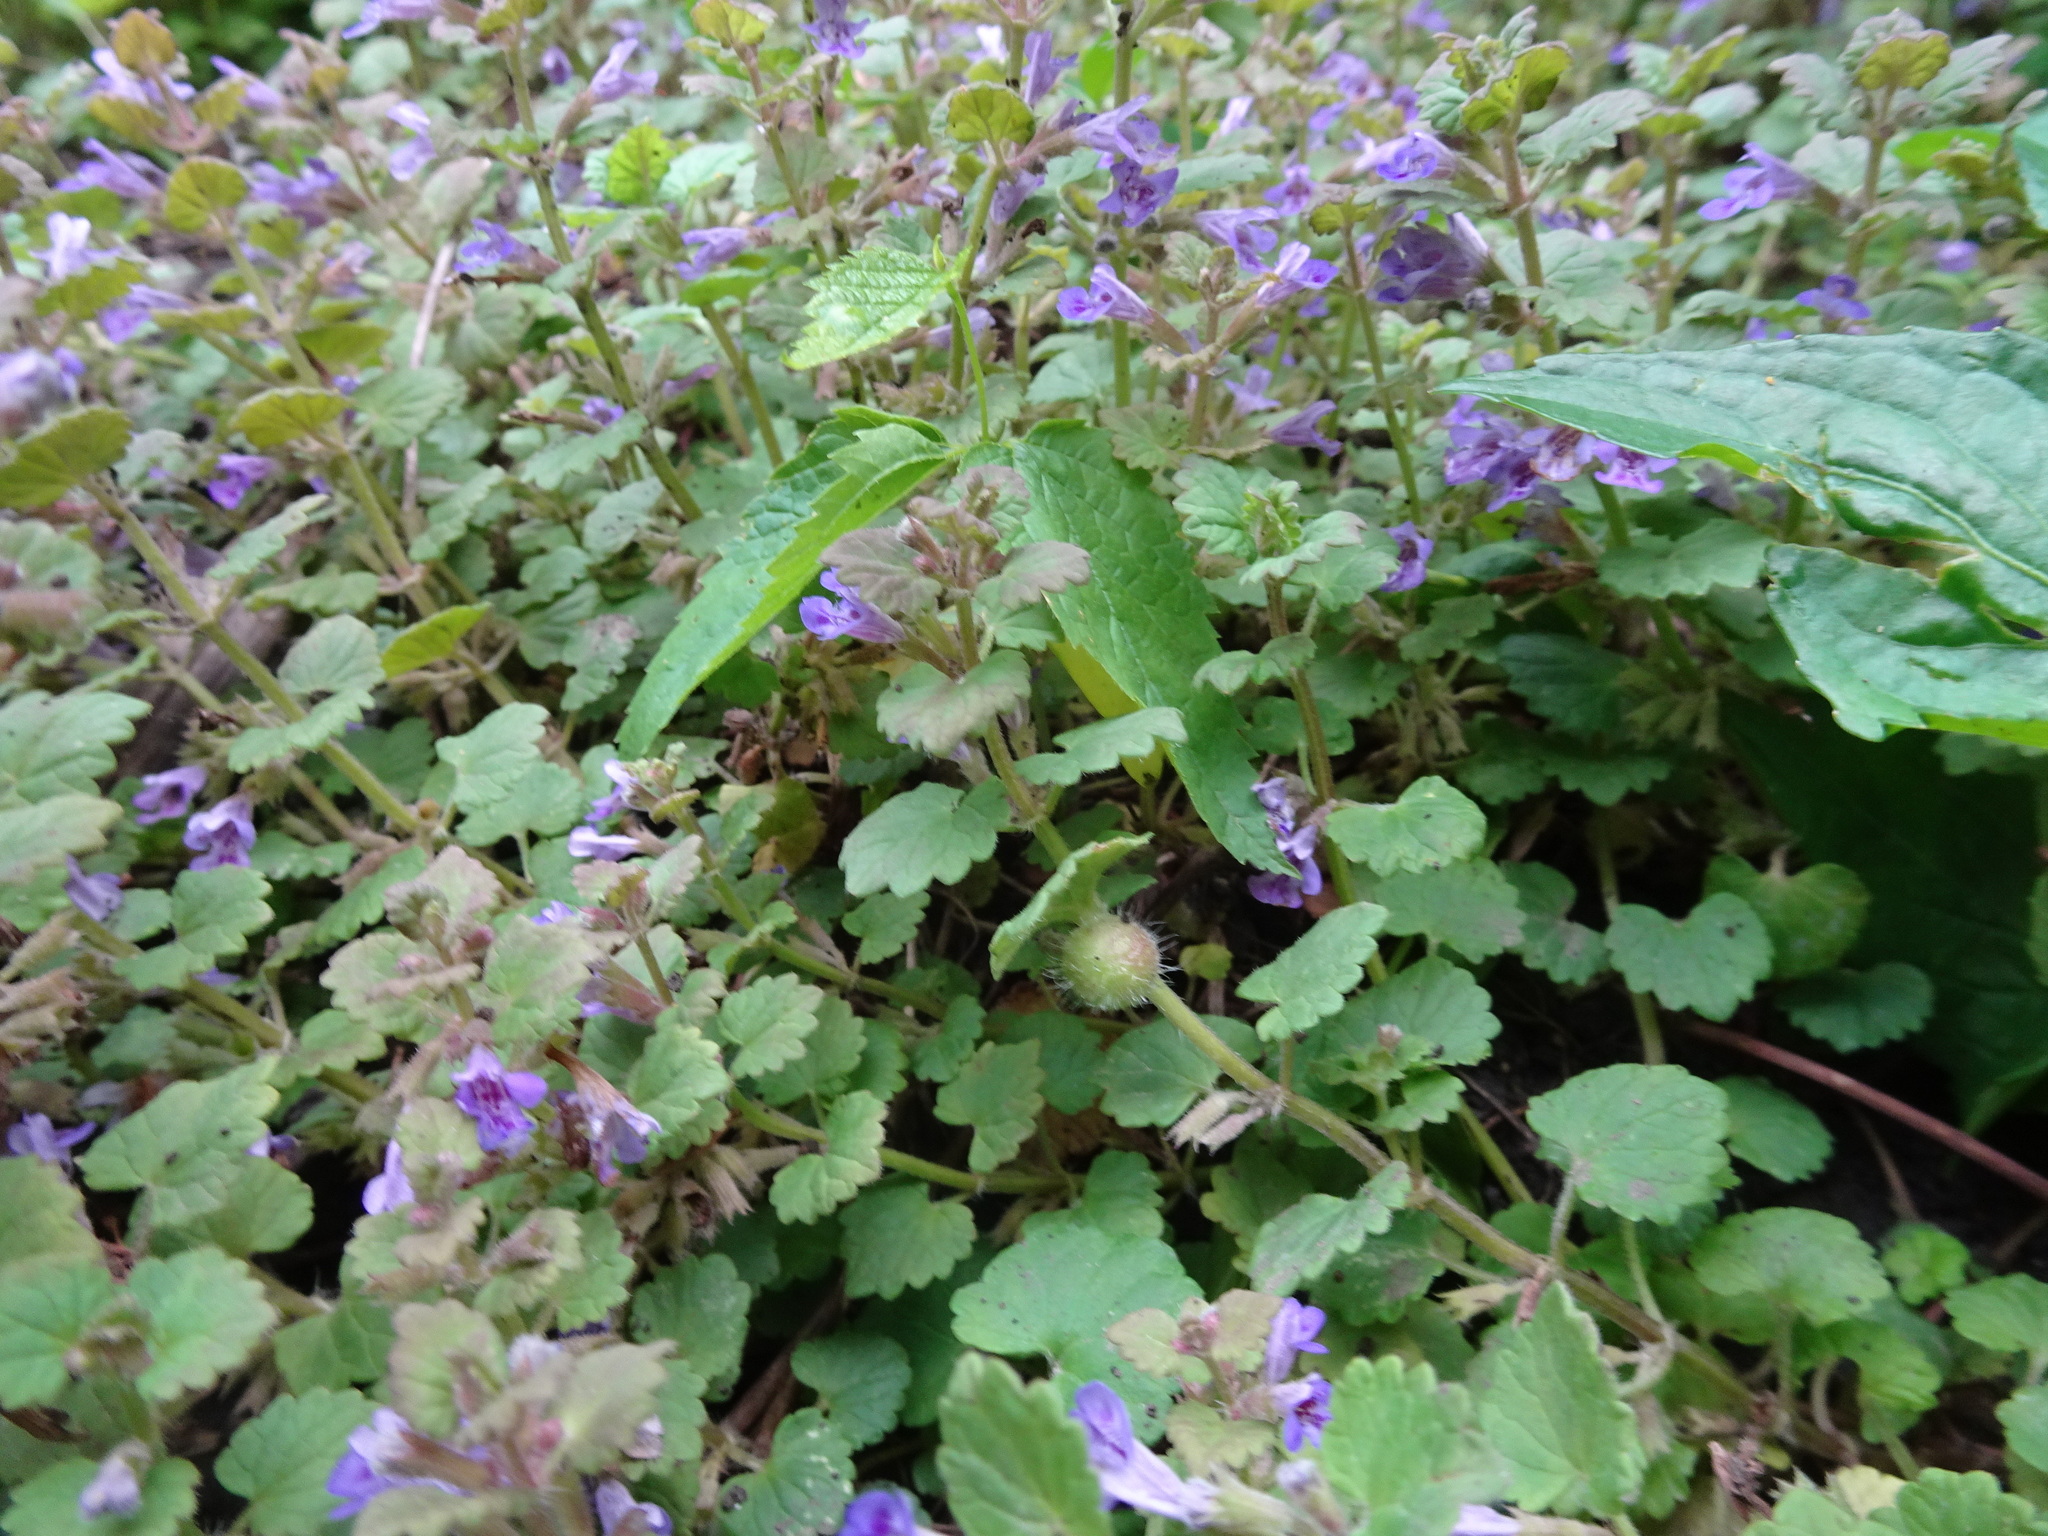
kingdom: Animalia
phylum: Arthropoda
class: Insecta
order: Hymenoptera
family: Cynipidae
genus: Liposthenes
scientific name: Liposthenes glechomae
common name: Gall wasp
